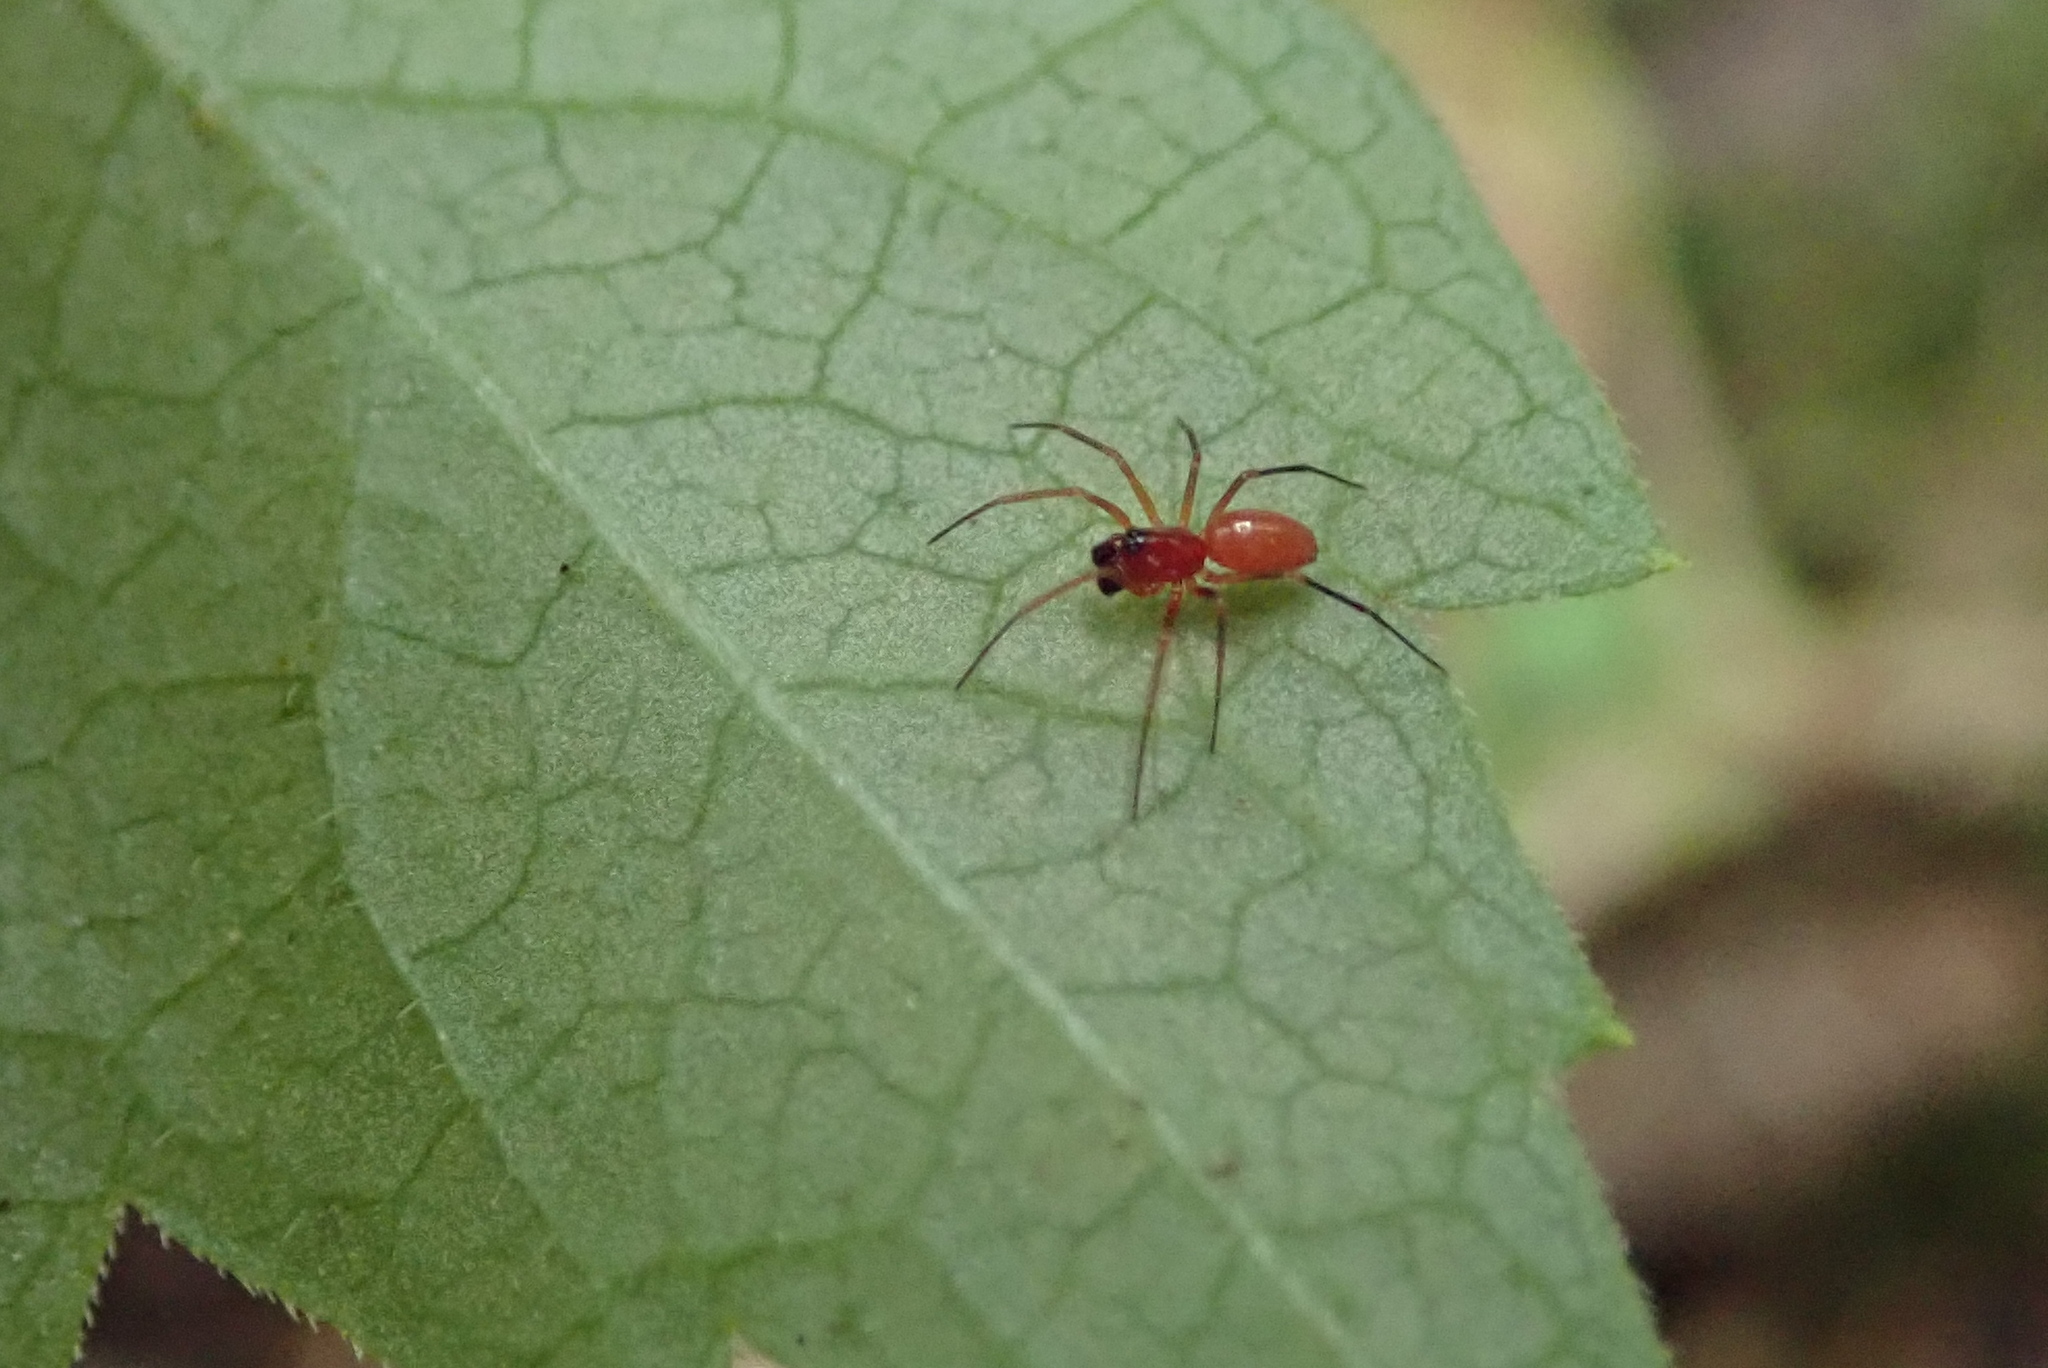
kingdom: Animalia
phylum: Arthropoda
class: Arachnida
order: Araneae
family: Linyphiidae
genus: Florinda
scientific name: Florinda coccinea
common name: Black-tailed red sheetweaver
